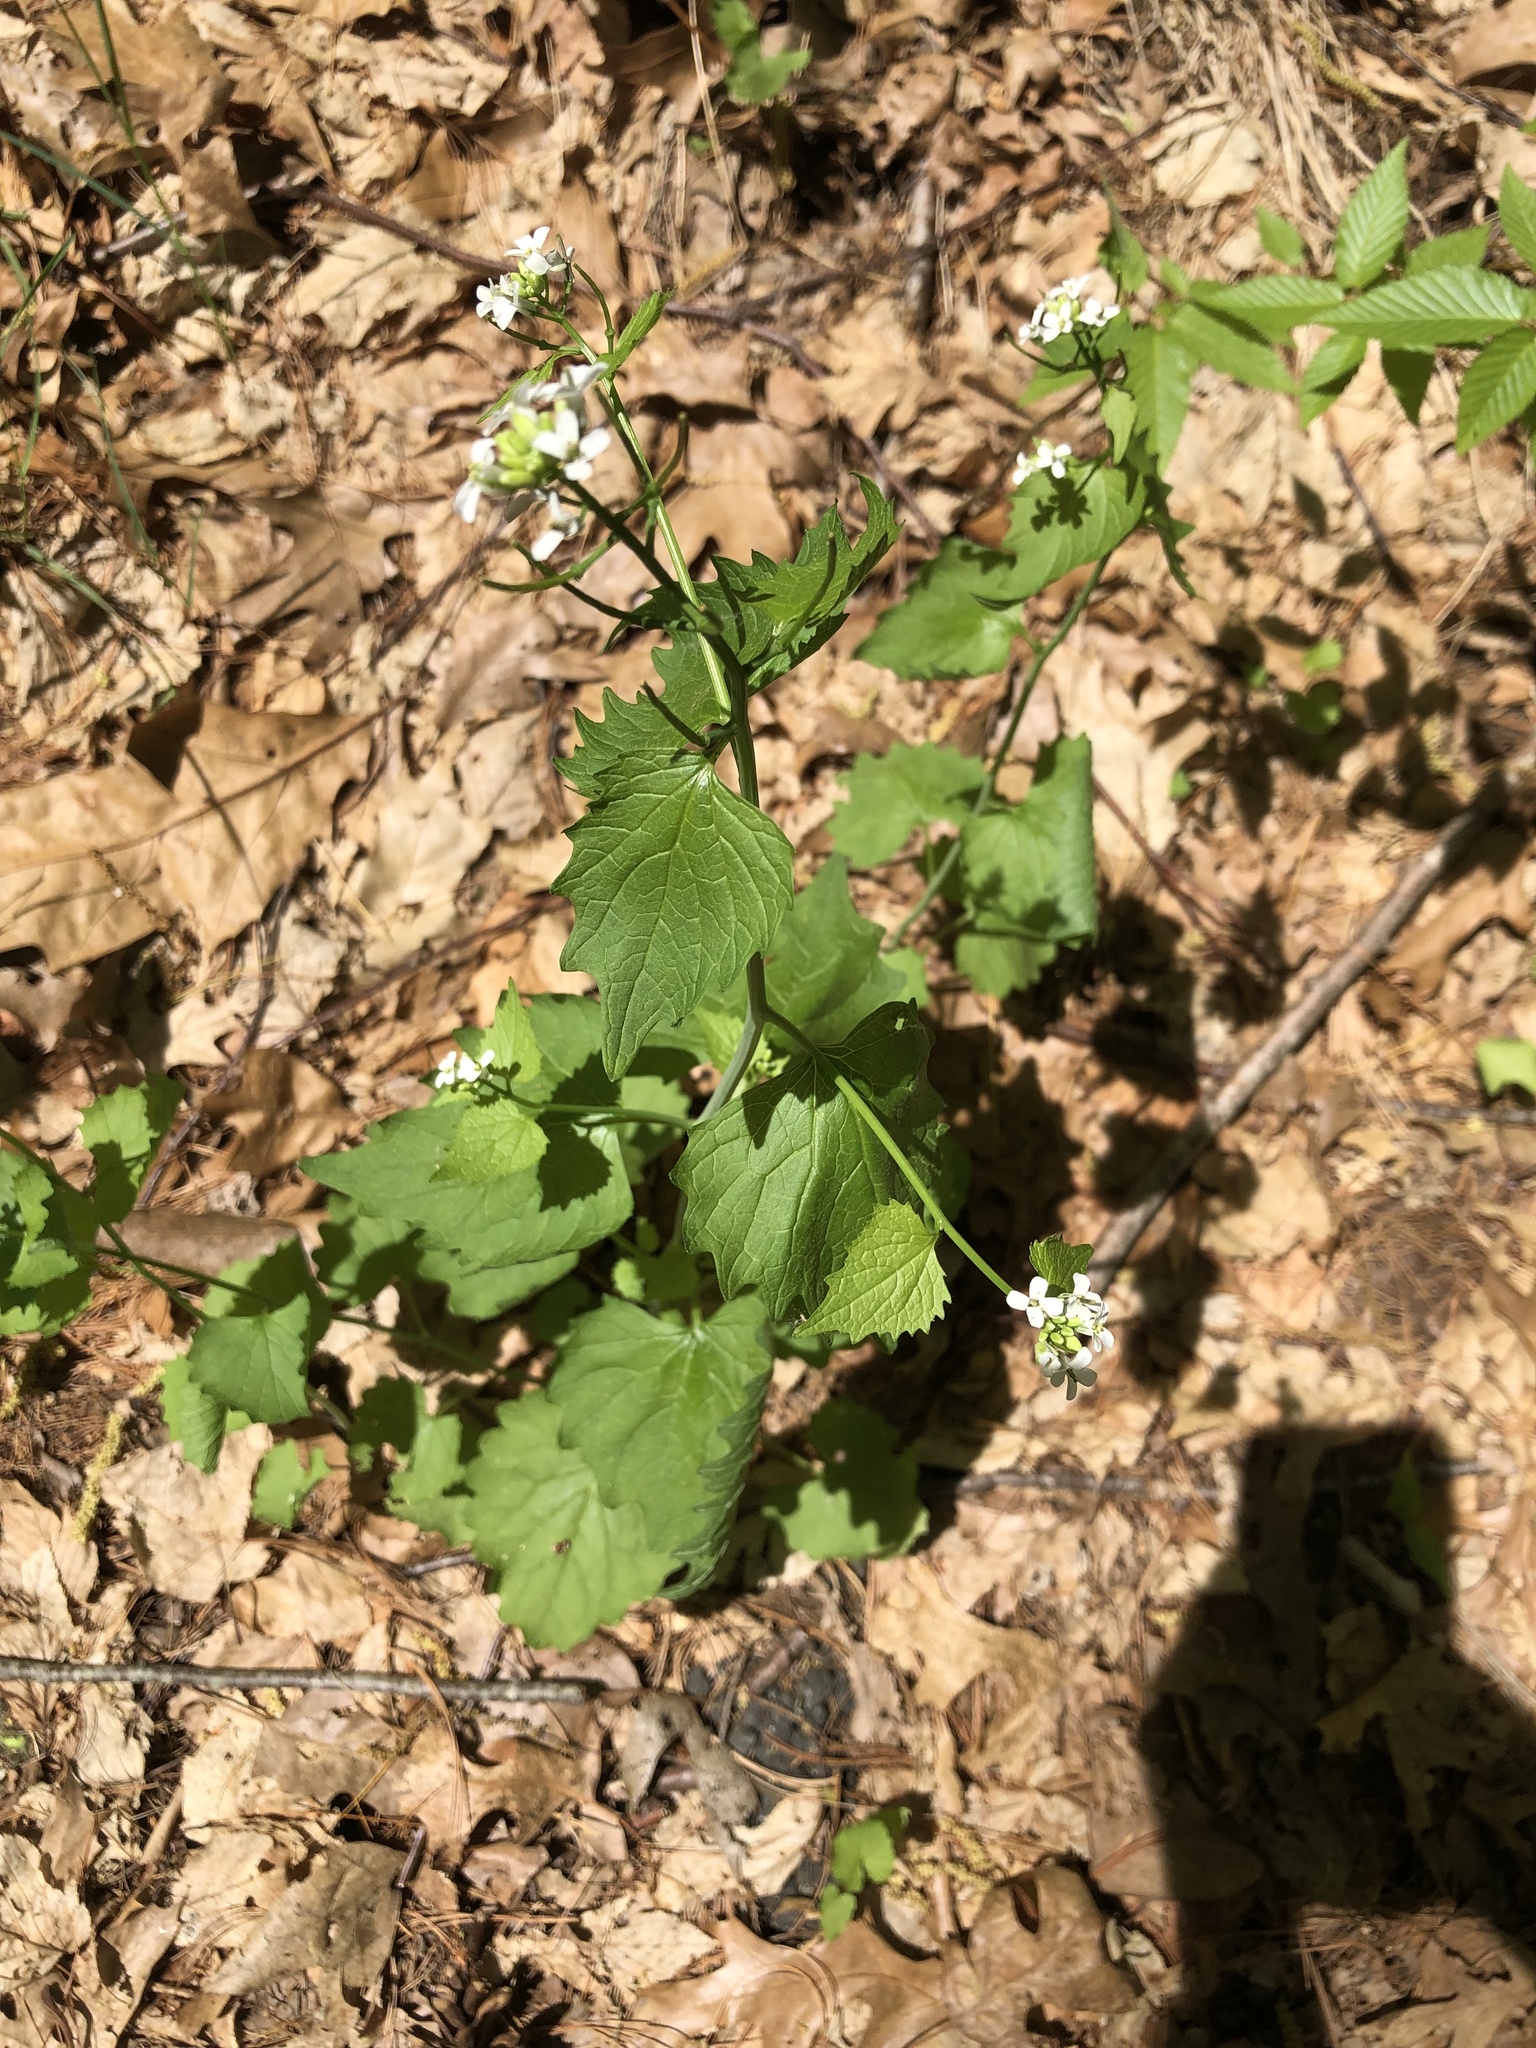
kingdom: Plantae
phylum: Tracheophyta
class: Magnoliopsida
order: Brassicales
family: Brassicaceae
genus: Alliaria
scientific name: Alliaria petiolata
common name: Garlic mustard
